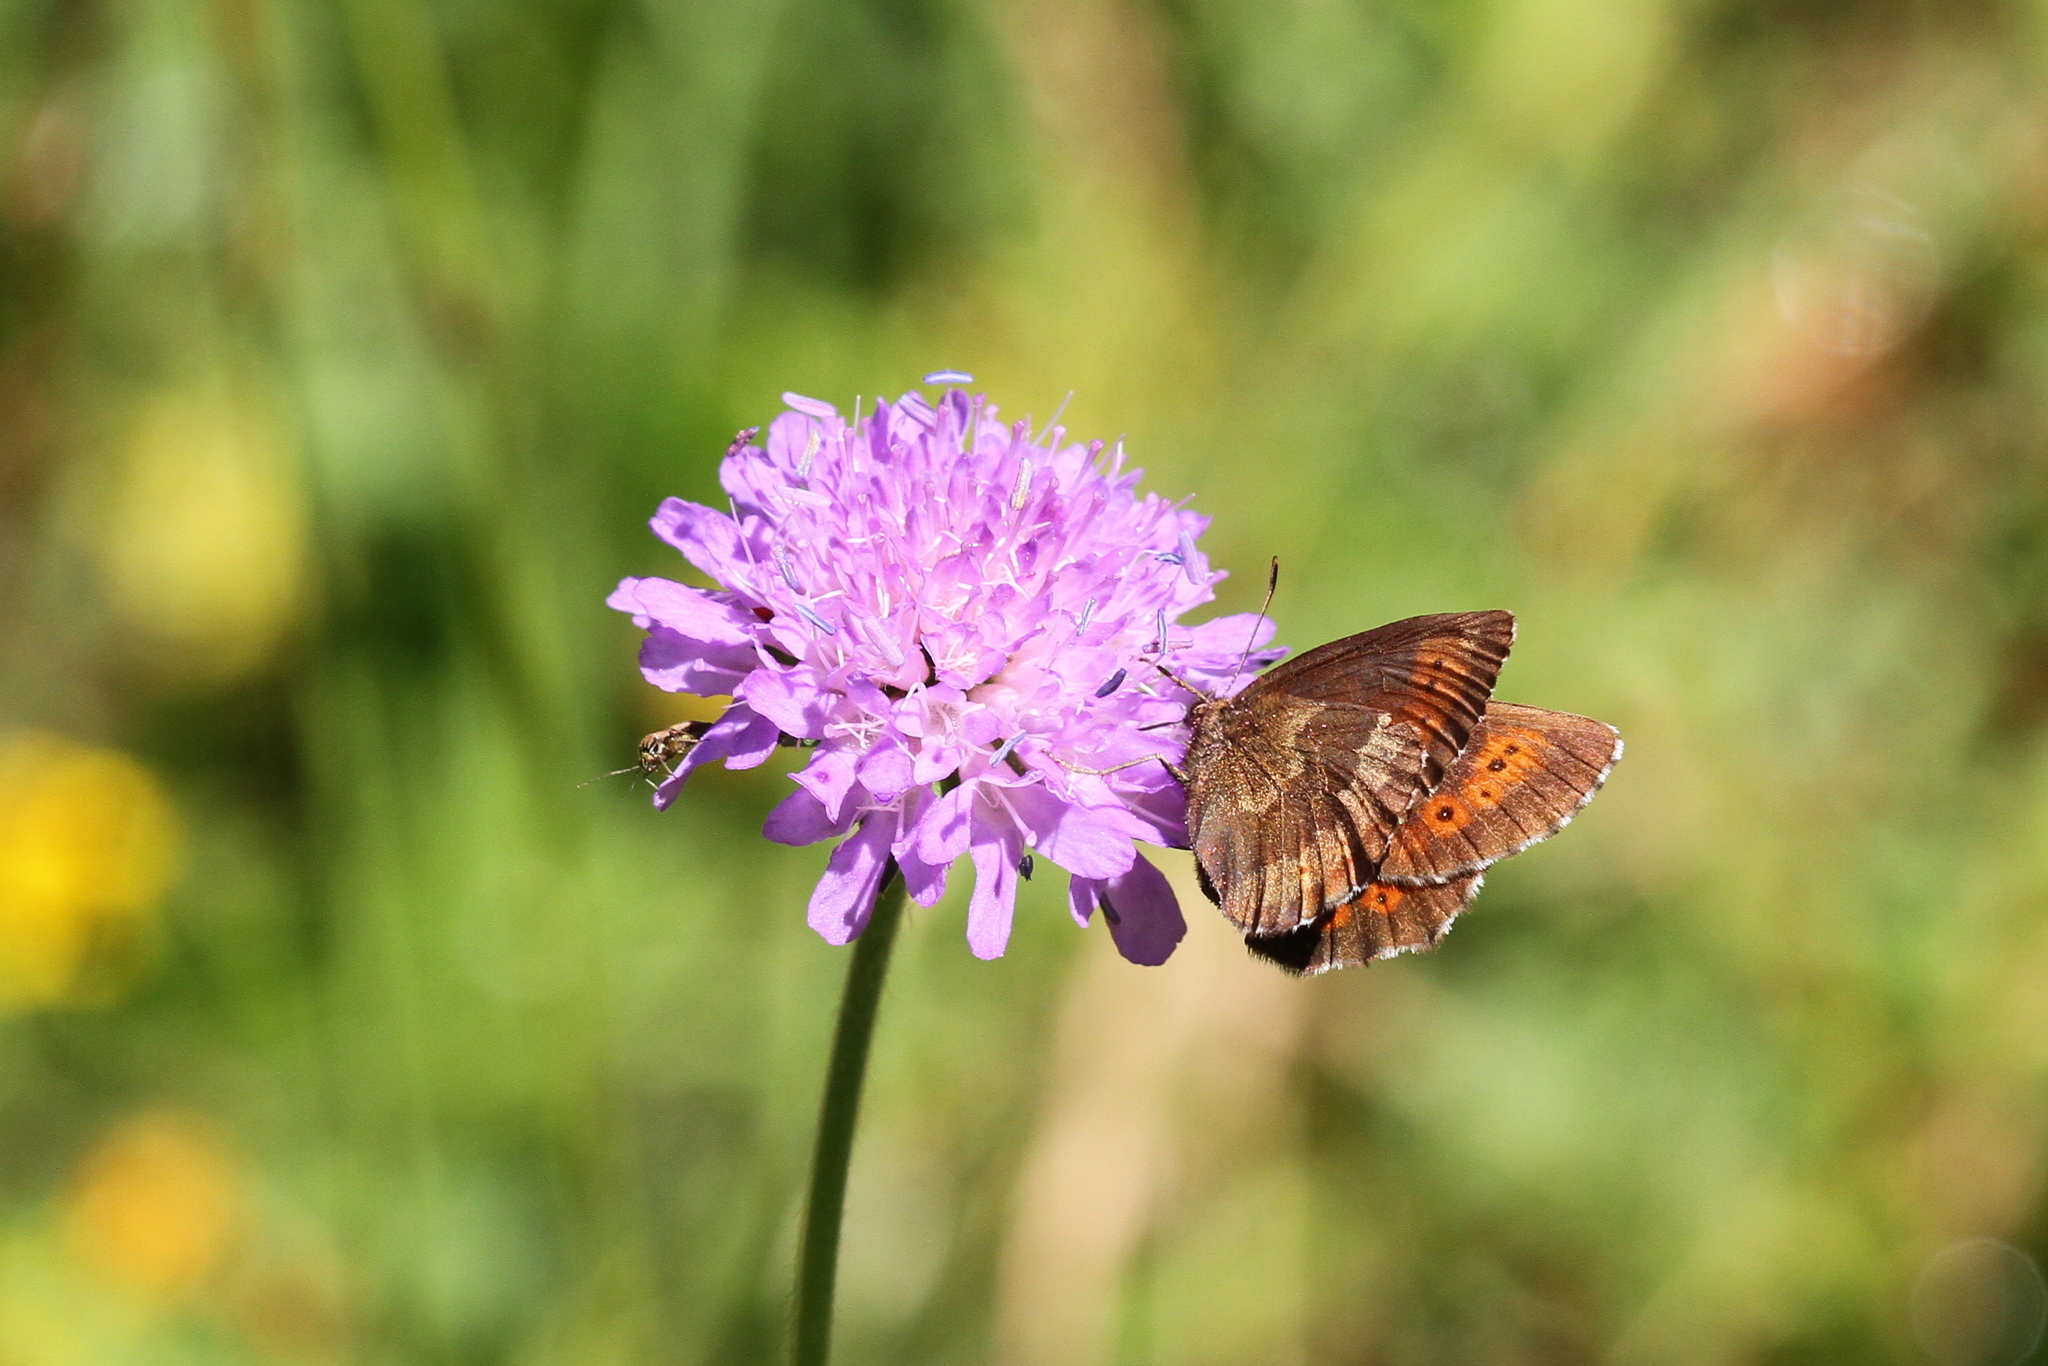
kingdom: Animalia
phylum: Arthropoda
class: Insecta
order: Lepidoptera
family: Nymphalidae
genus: Erebia
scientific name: Erebia euryale
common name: Large ringlet
